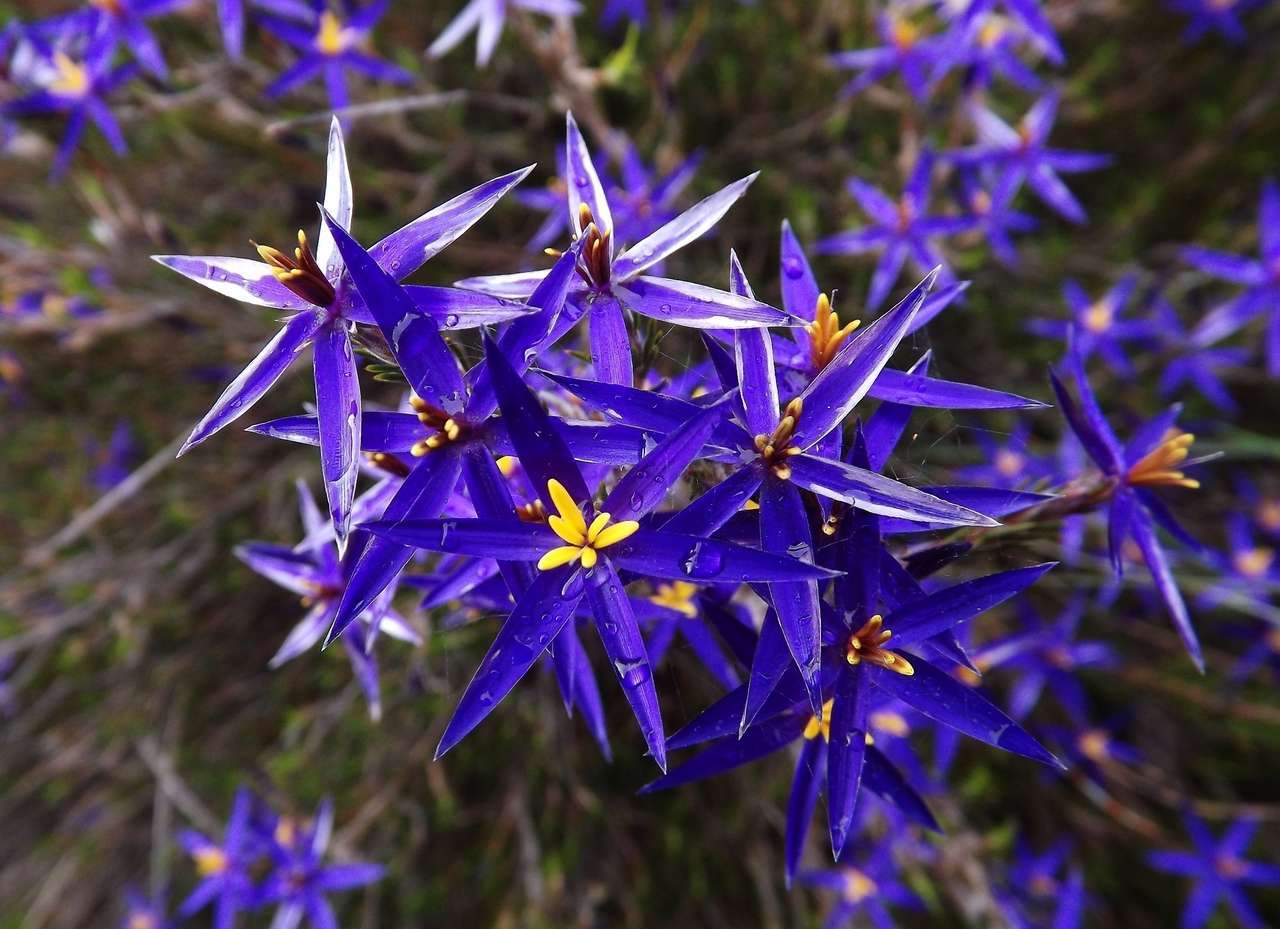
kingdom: Plantae
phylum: Tracheophyta
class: Liliopsida
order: Arecales
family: Dasypogonaceae
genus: Calectasia
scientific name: Calectasia intermedia
